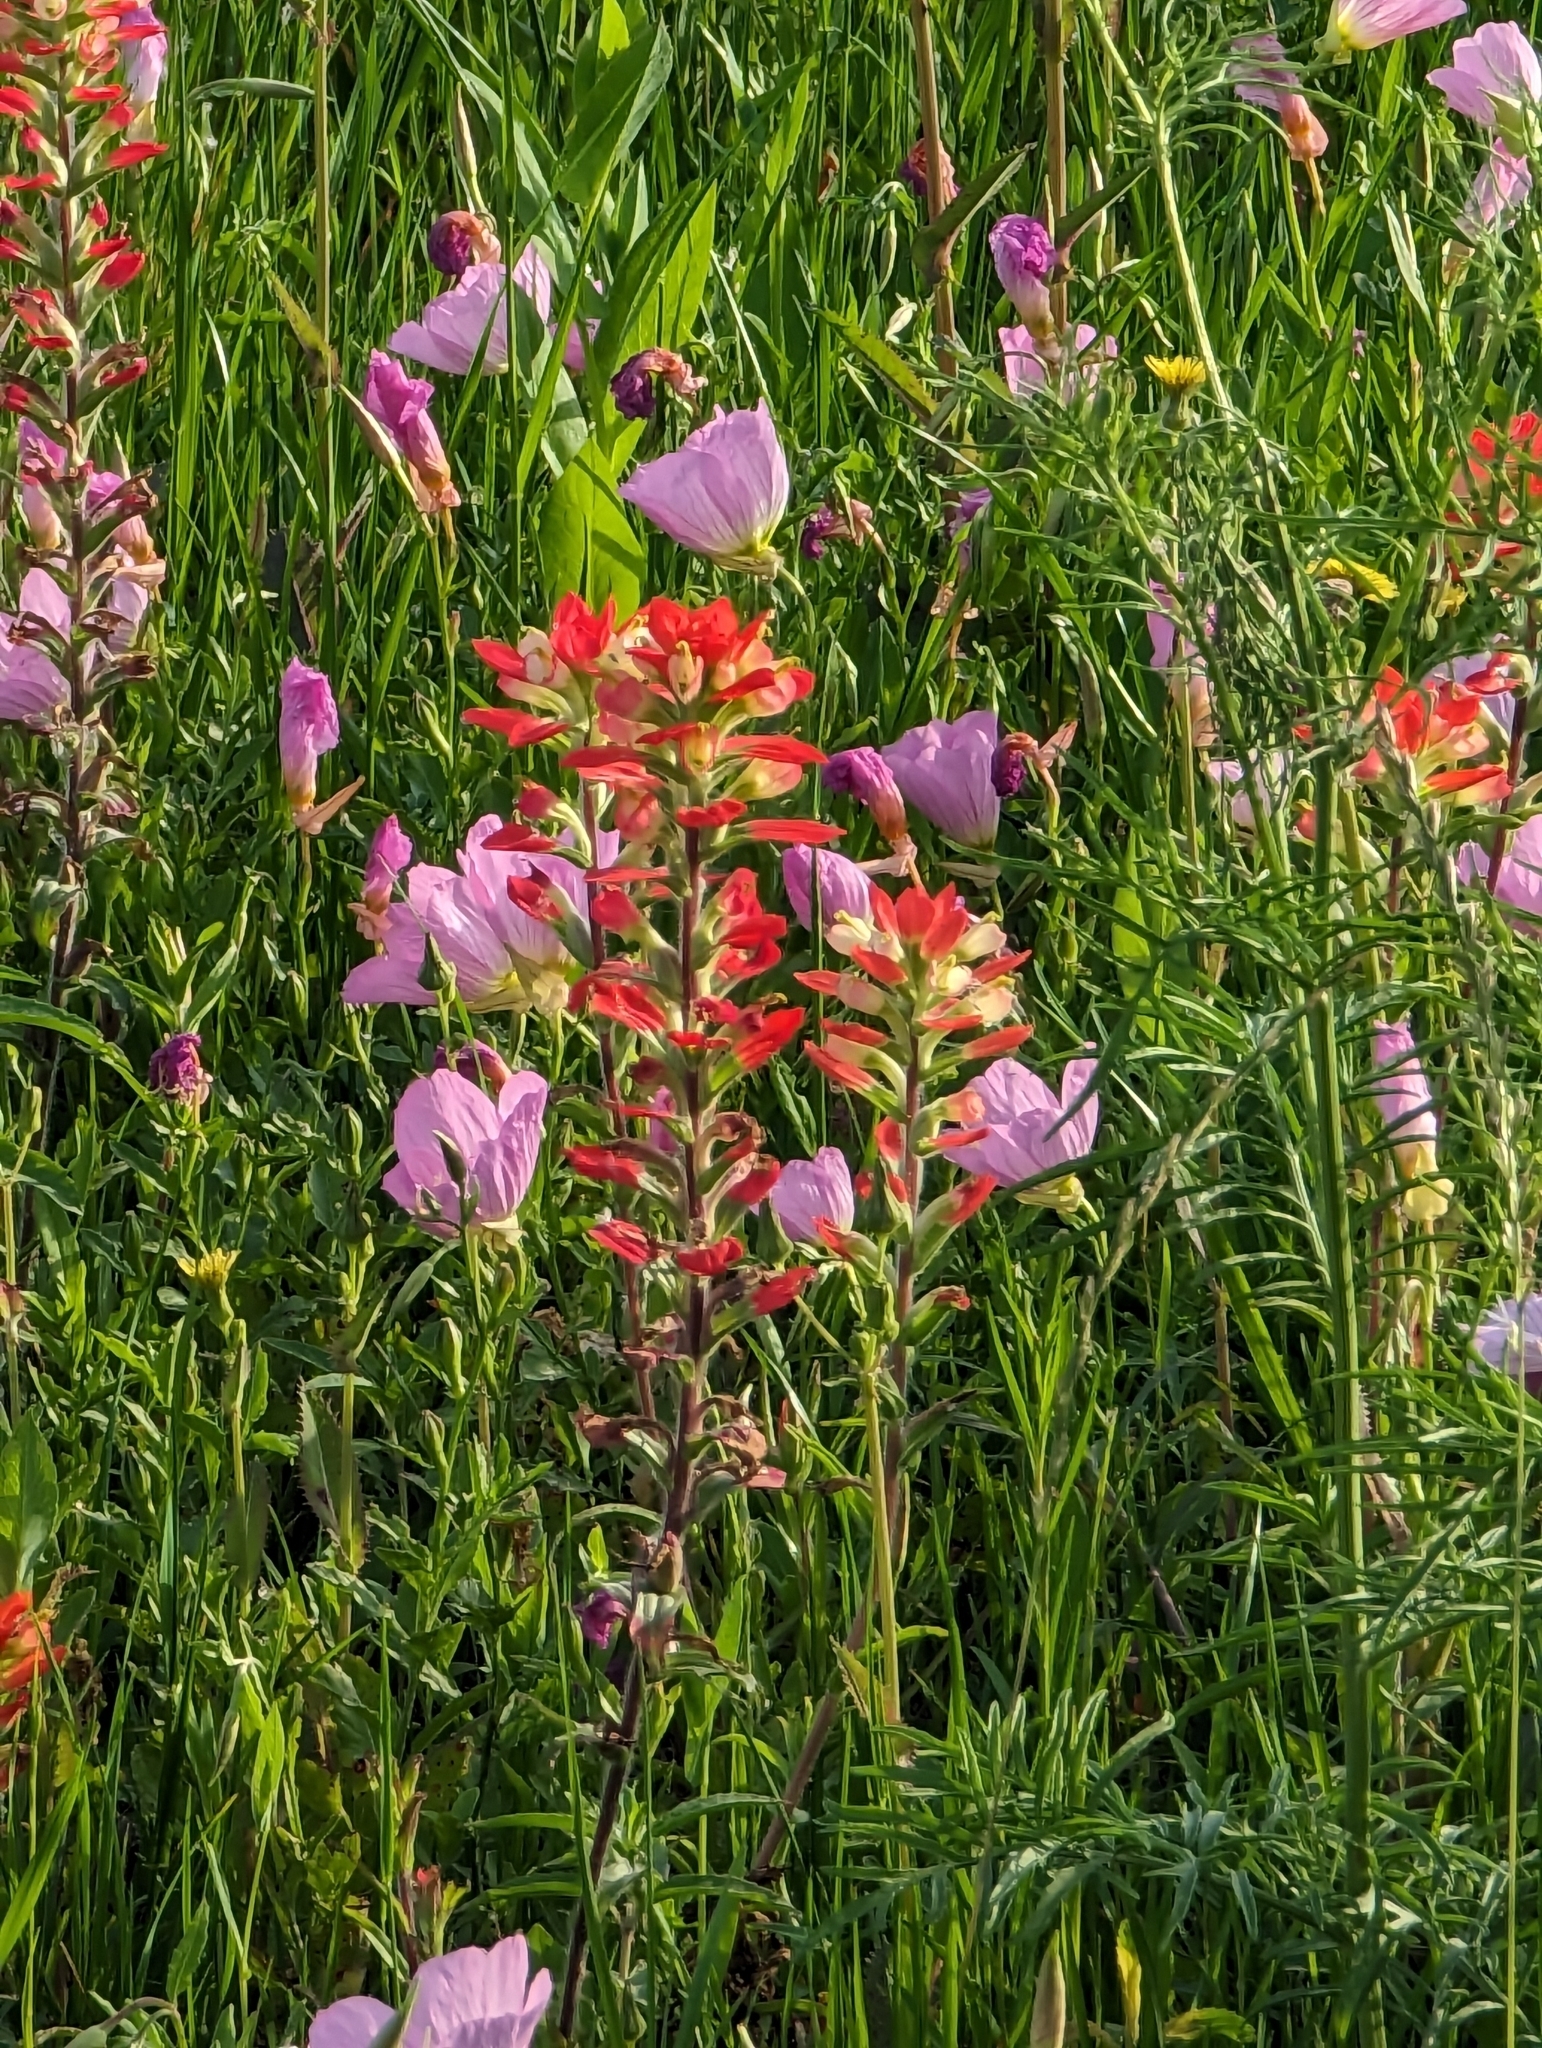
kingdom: Plantae
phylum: Tracheophyta
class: Magnoliopsida
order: Lamiales
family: Orobanchaceae
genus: Castilleja
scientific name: Castilleja indivisa
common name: Texas paintbrush
